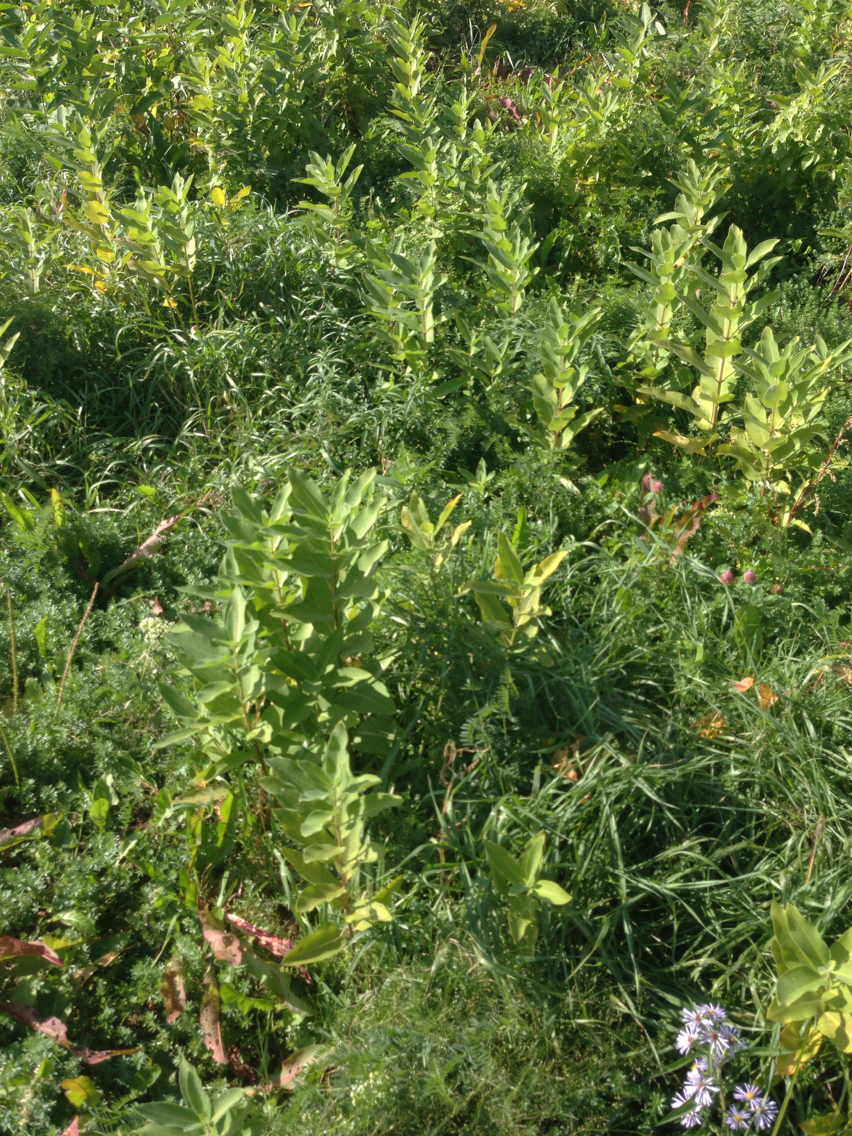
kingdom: Plantae
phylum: Tracheophyta
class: Magnoliopsida
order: Gentianales
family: Apocynaceae
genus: Asclepias
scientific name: Asclepias syriaca
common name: Common milkweed
